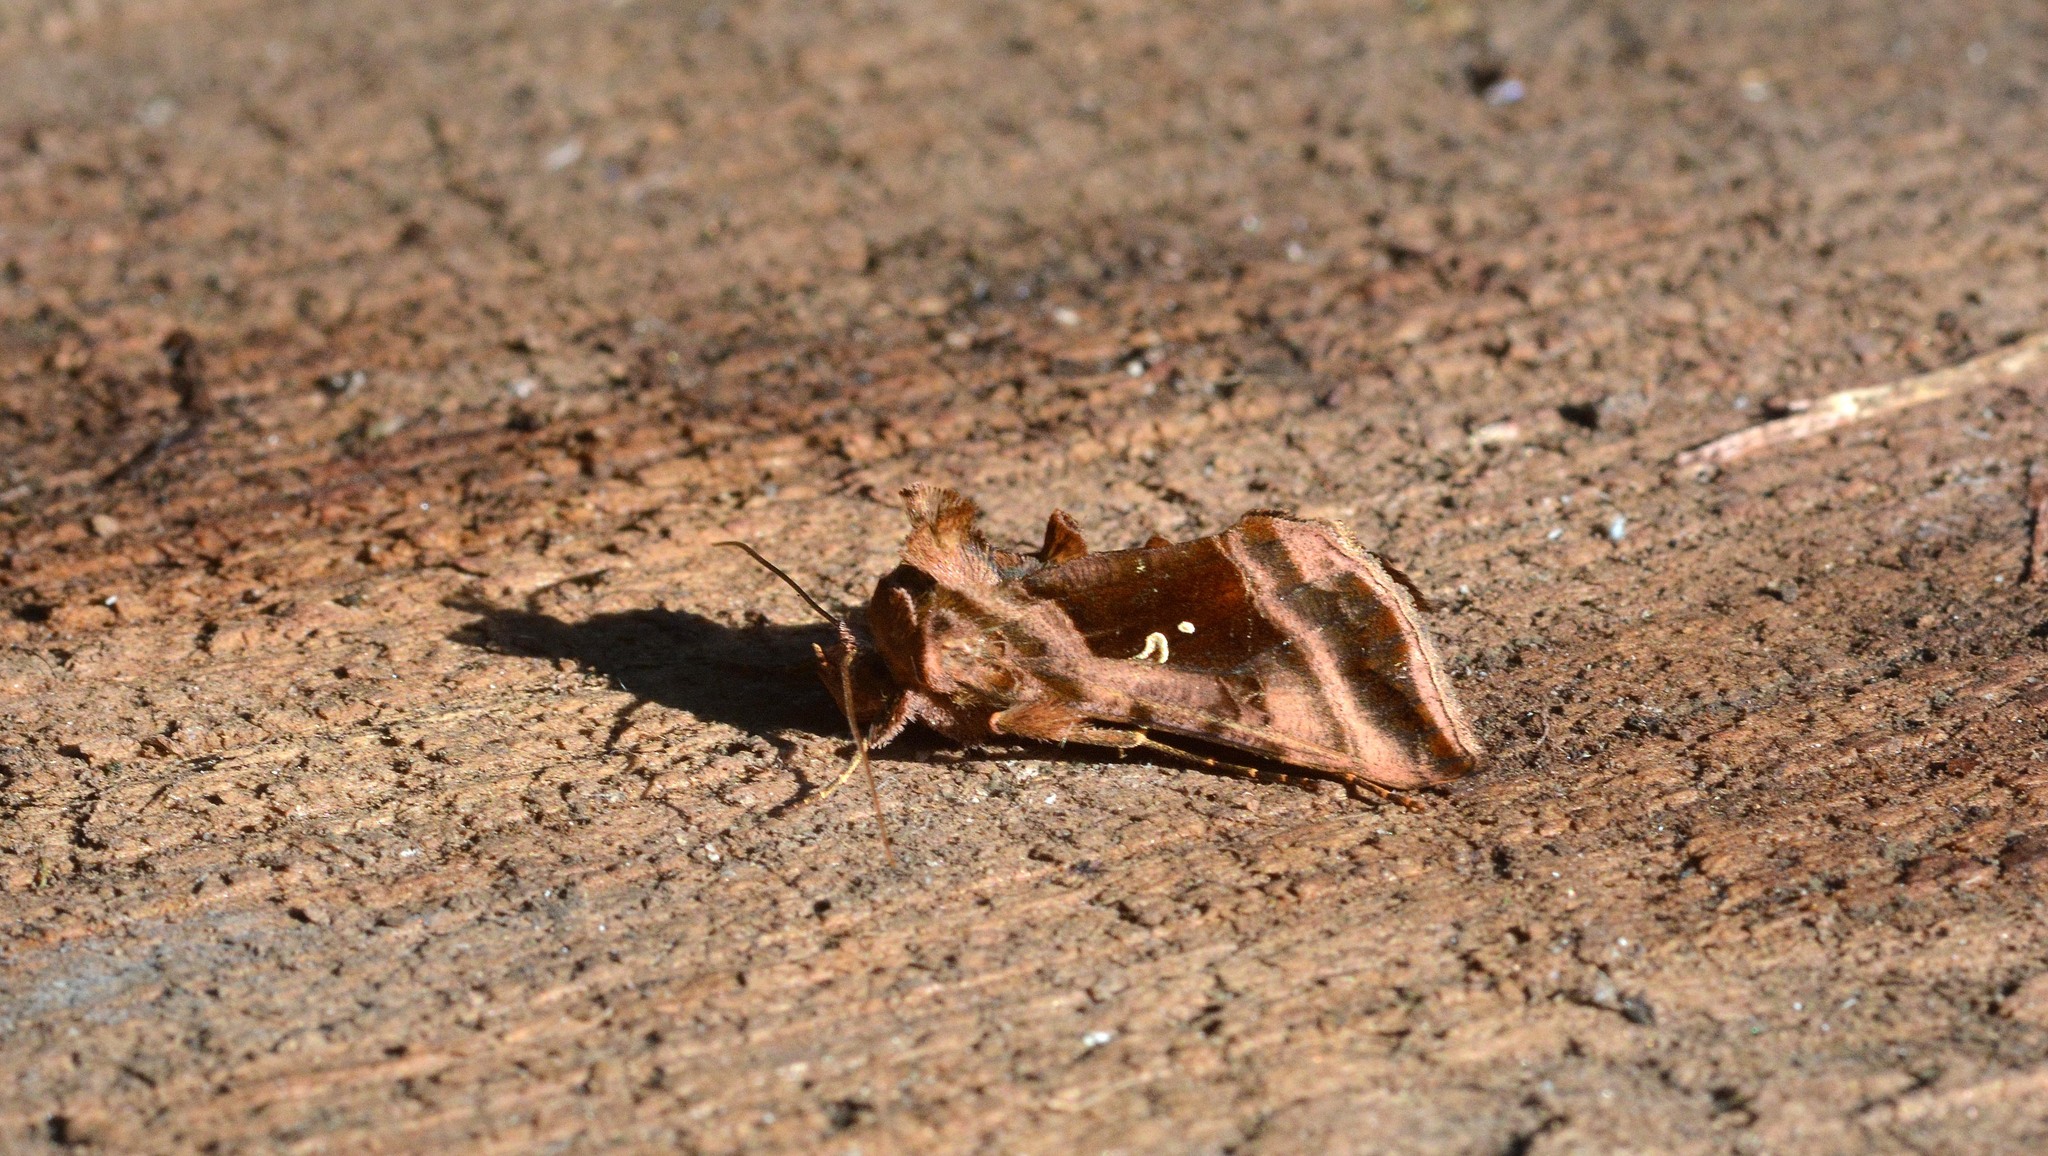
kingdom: Animalia
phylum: Arthropoda
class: Insecta
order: Lepidoptera
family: Noctuidae
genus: Autographa
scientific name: Autographa jota
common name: Plain golden y
